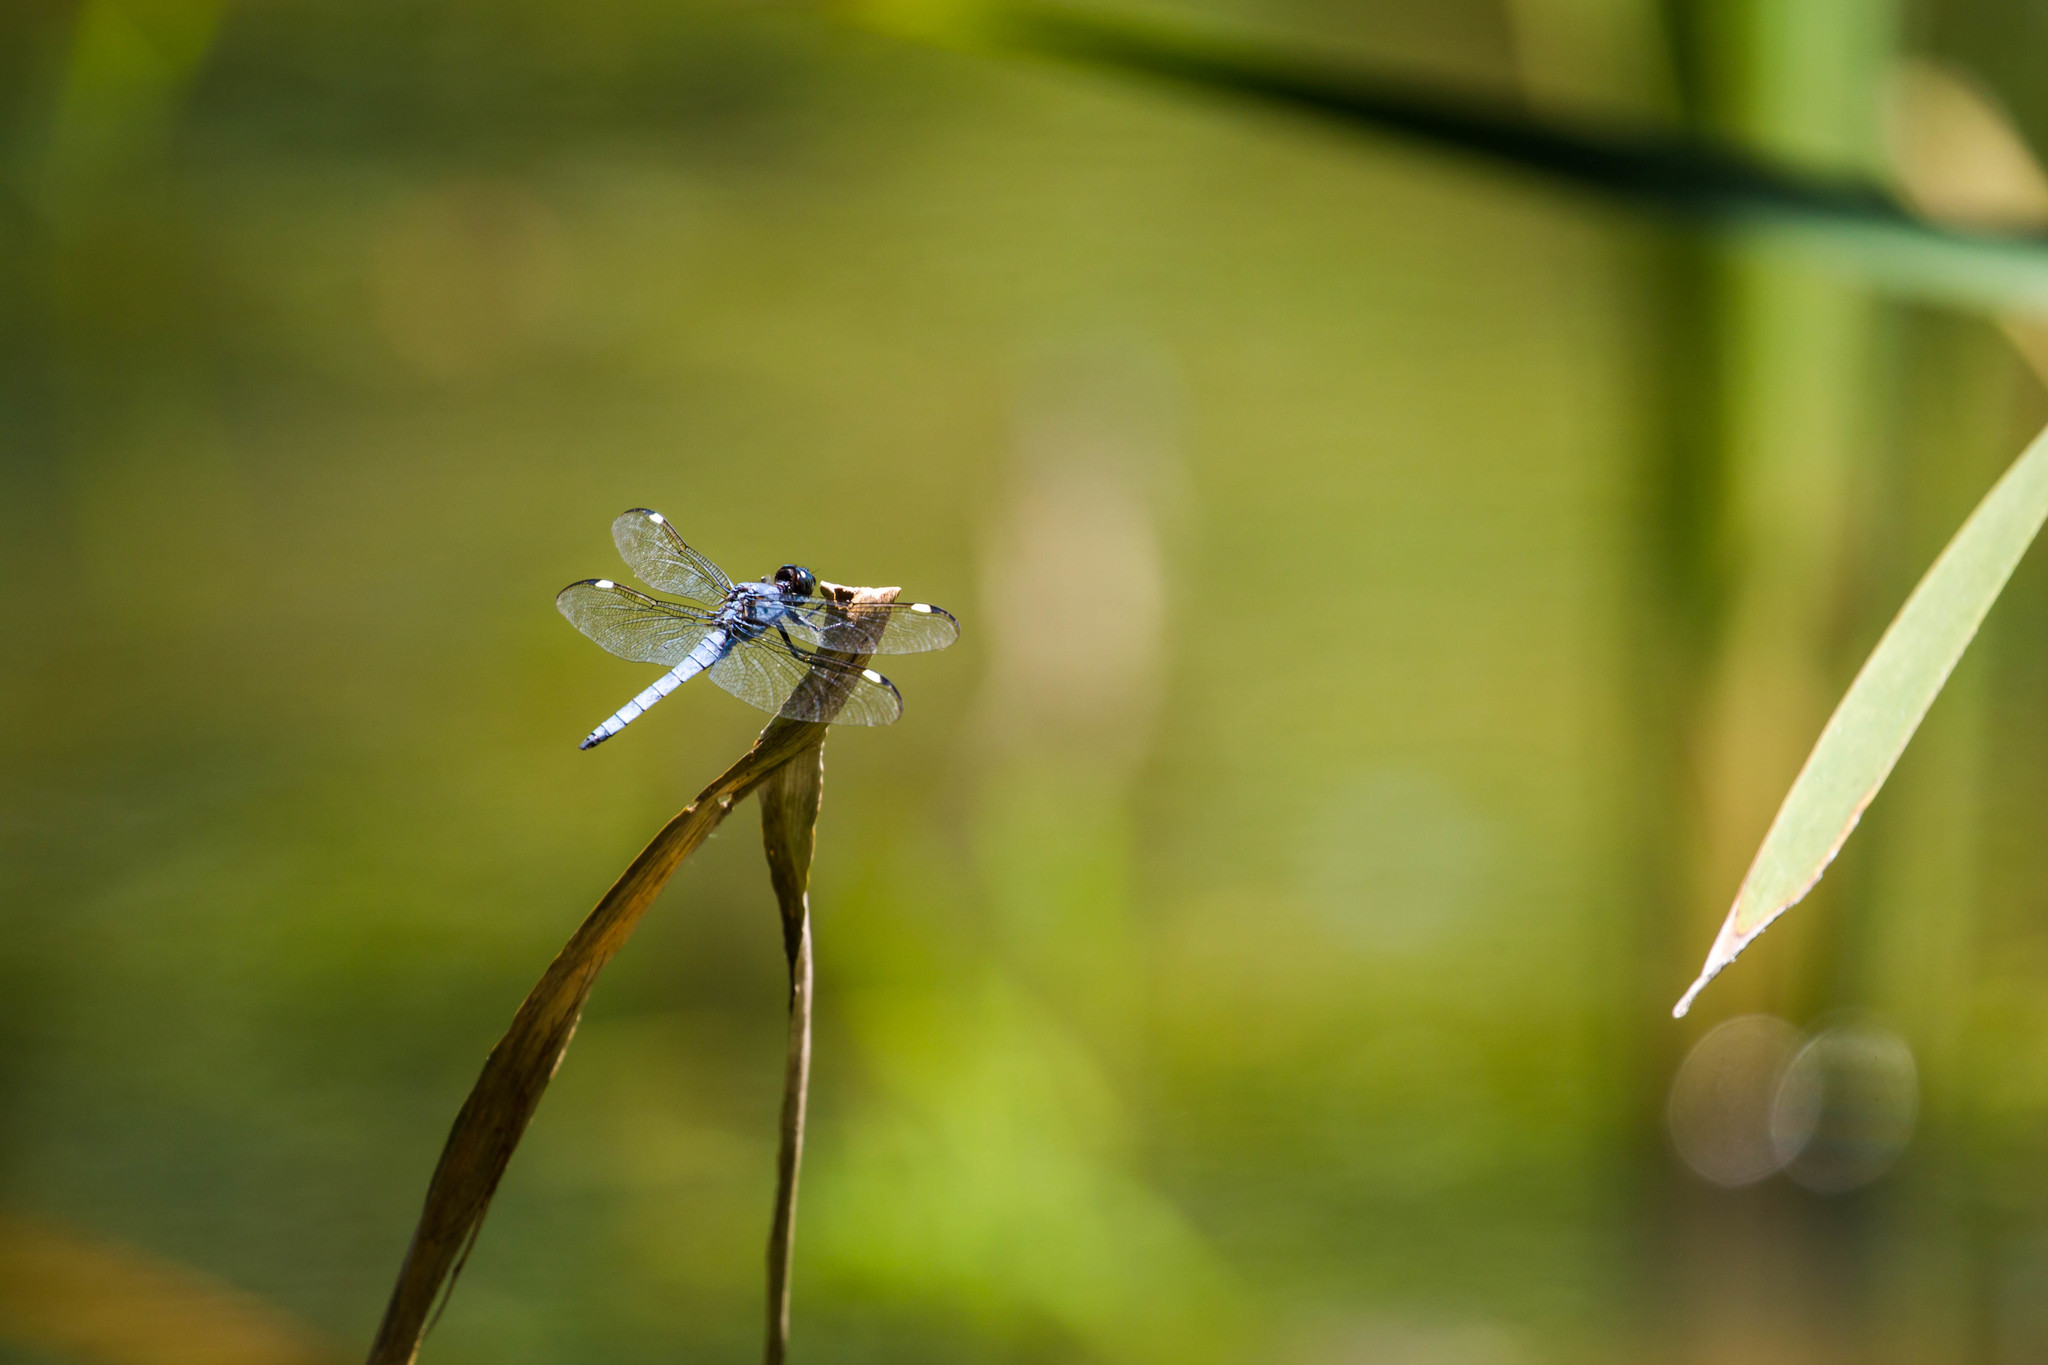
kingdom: Animalia
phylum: Arthropoda
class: Insecta
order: Odonata
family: Libellulidae
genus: Libellula
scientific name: Libellula cyanea
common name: Spangled skimmer
